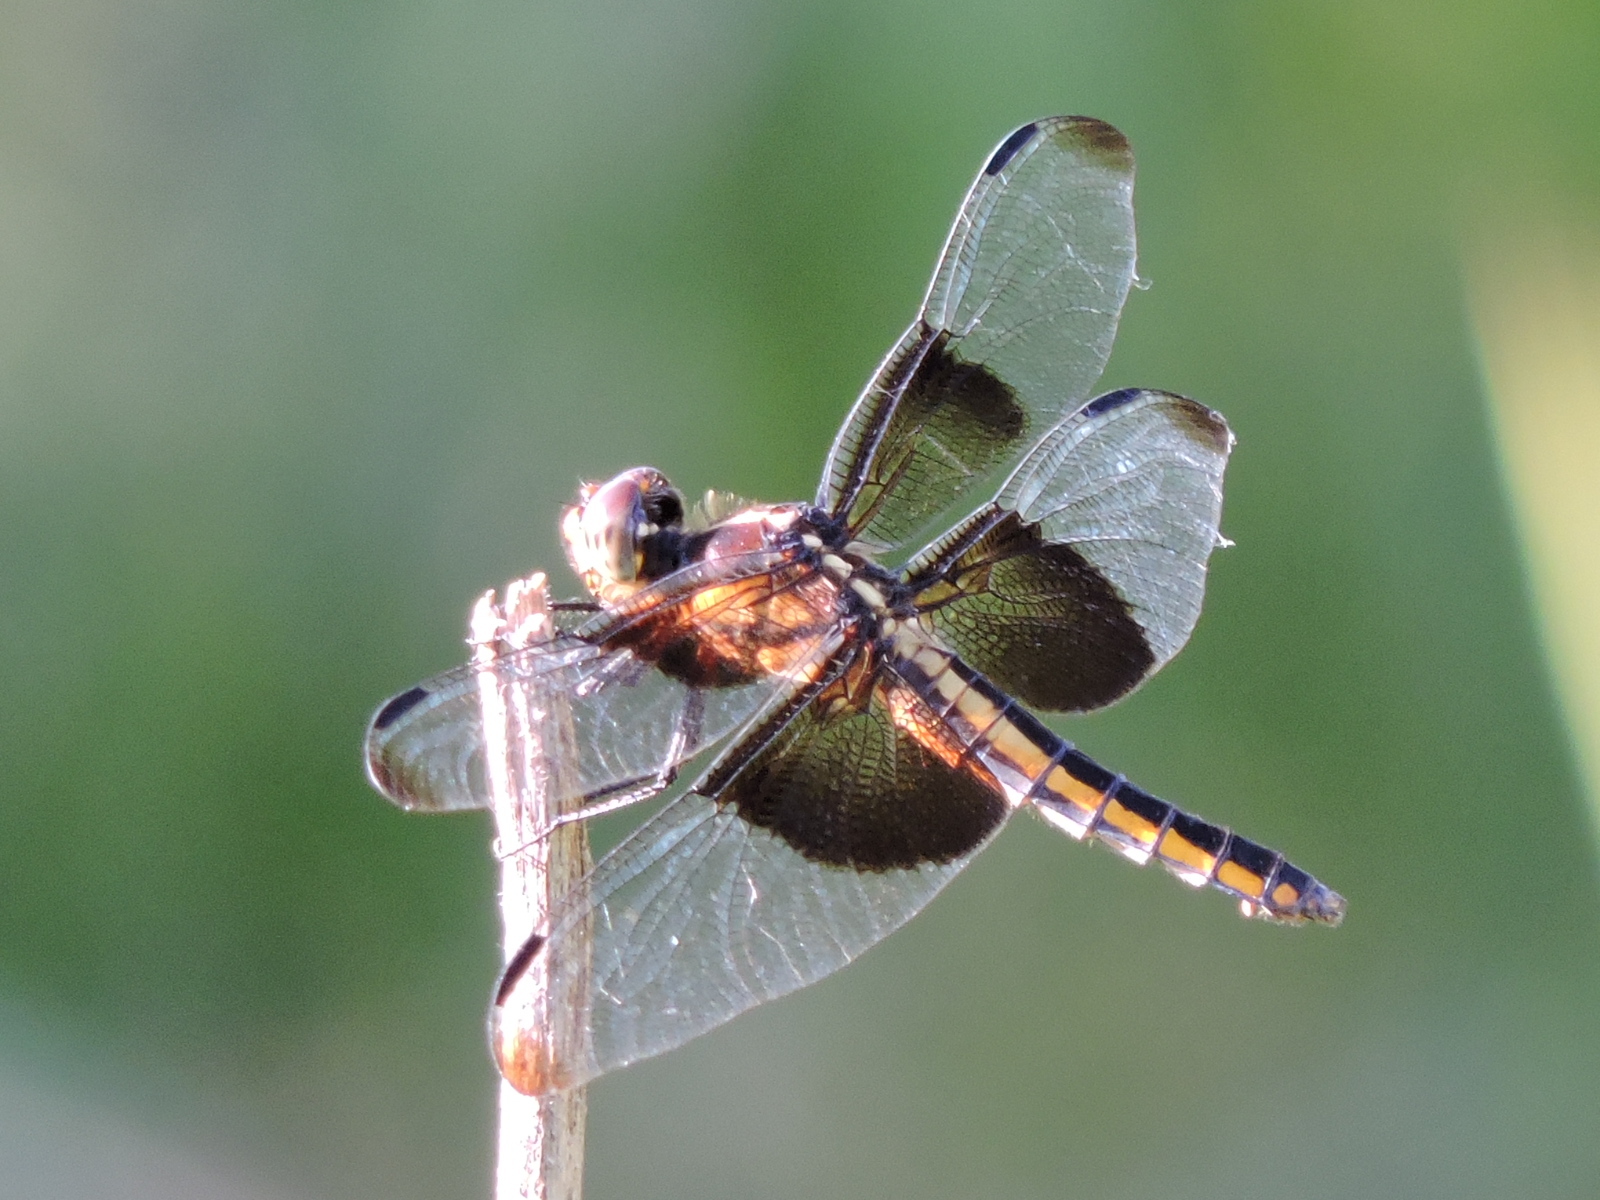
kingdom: Animalia
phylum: Arthropoda
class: Insecta
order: Odonata
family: Libellulidae
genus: Libellula
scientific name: Libellula luctuosa
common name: Widow skimmer
